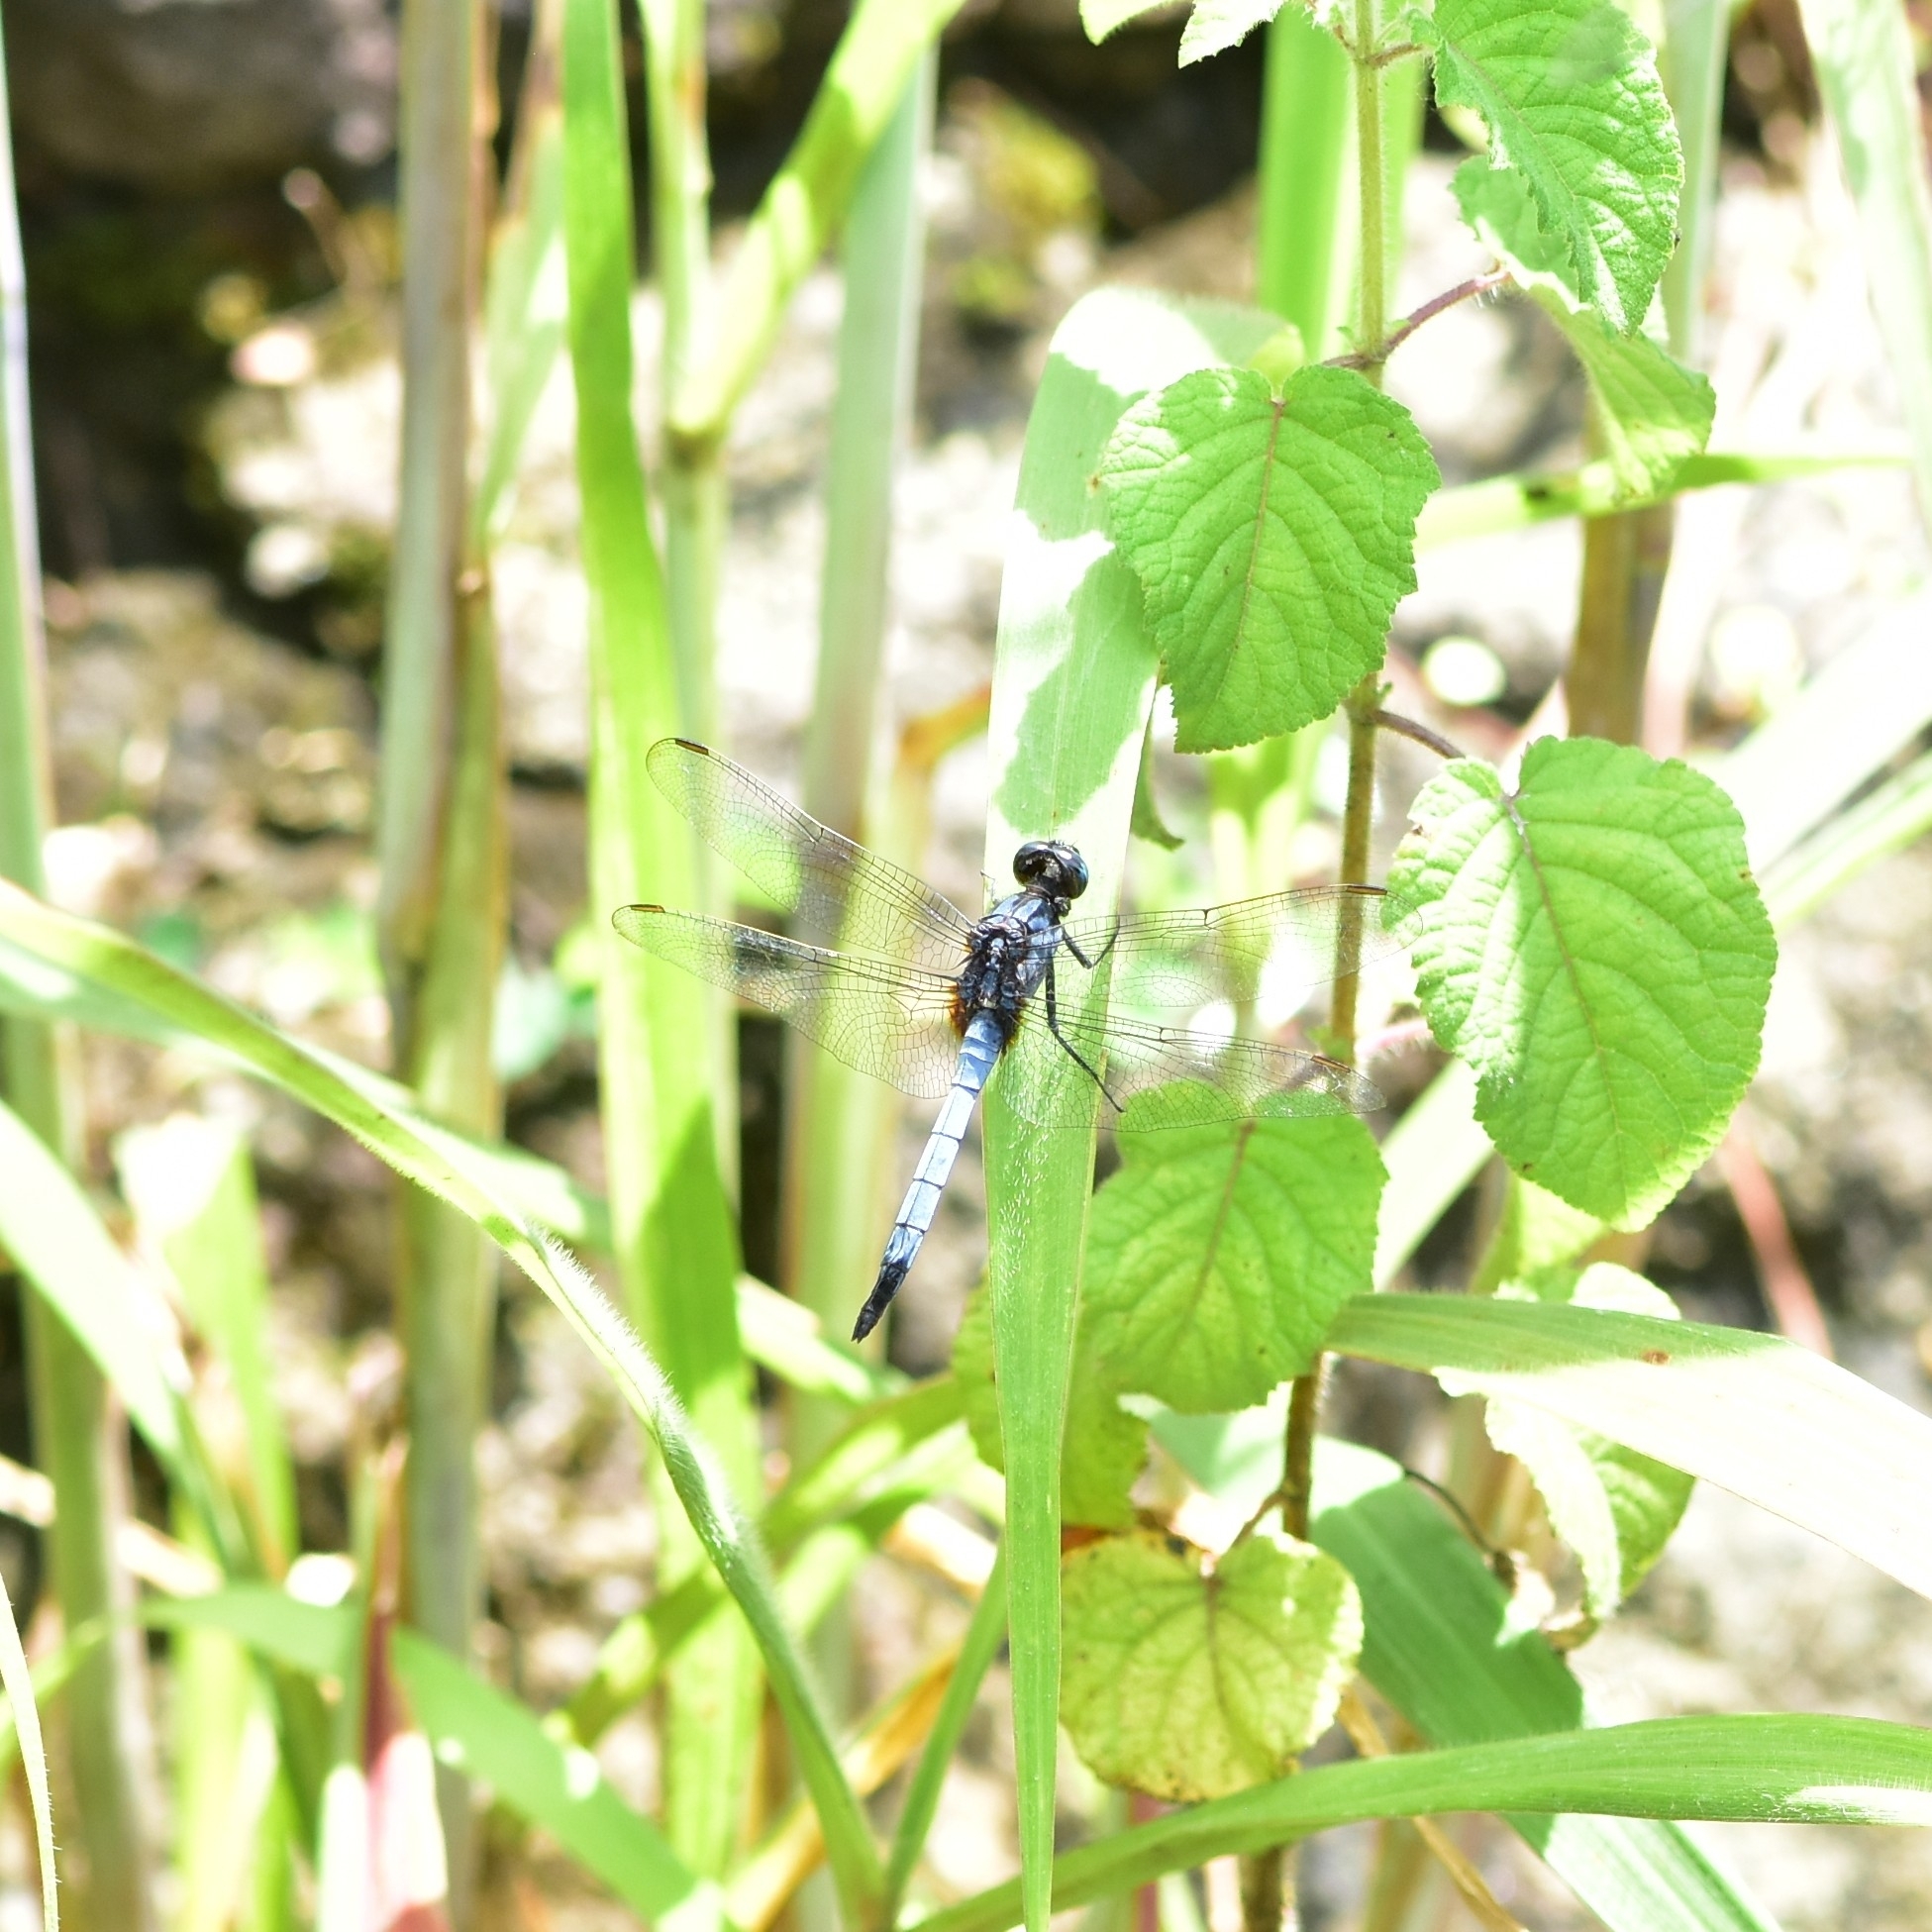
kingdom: Animalia
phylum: Arthropoda
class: Insecta
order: Odonata
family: Libellulidae
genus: Orthetrum
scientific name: Orthetrum glaucum
